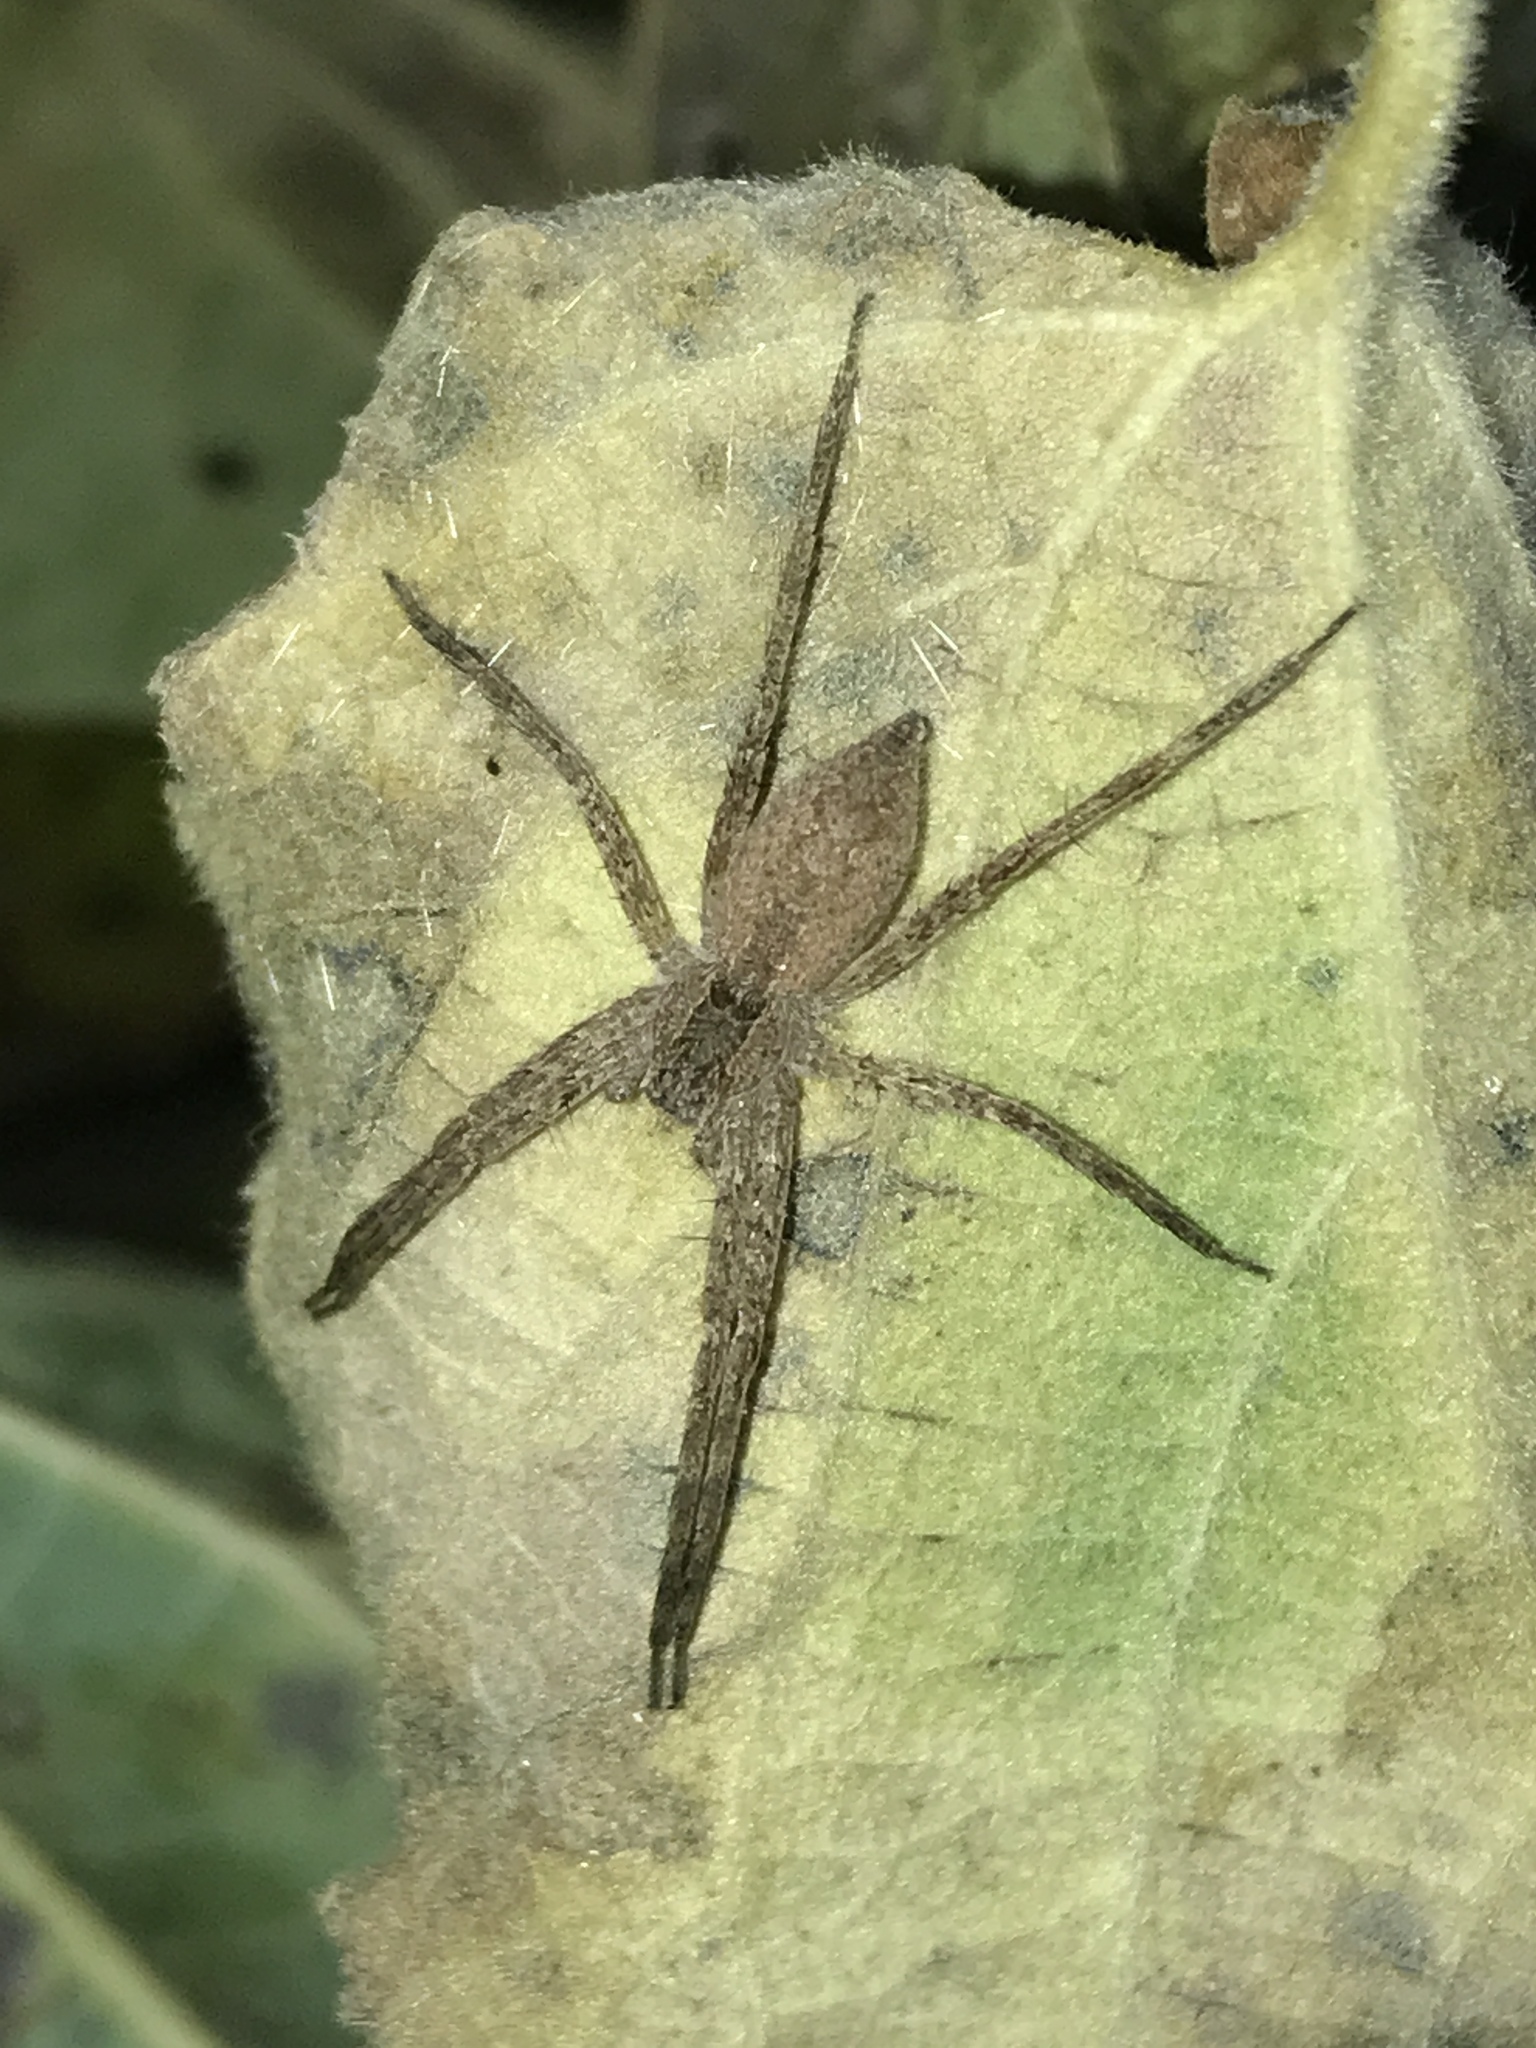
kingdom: Animalia
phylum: Arthropoda
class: Arachnida
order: Araneae
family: Pisauridae
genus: Pisaurina
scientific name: Pisaurina mira
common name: American nursery web spider
